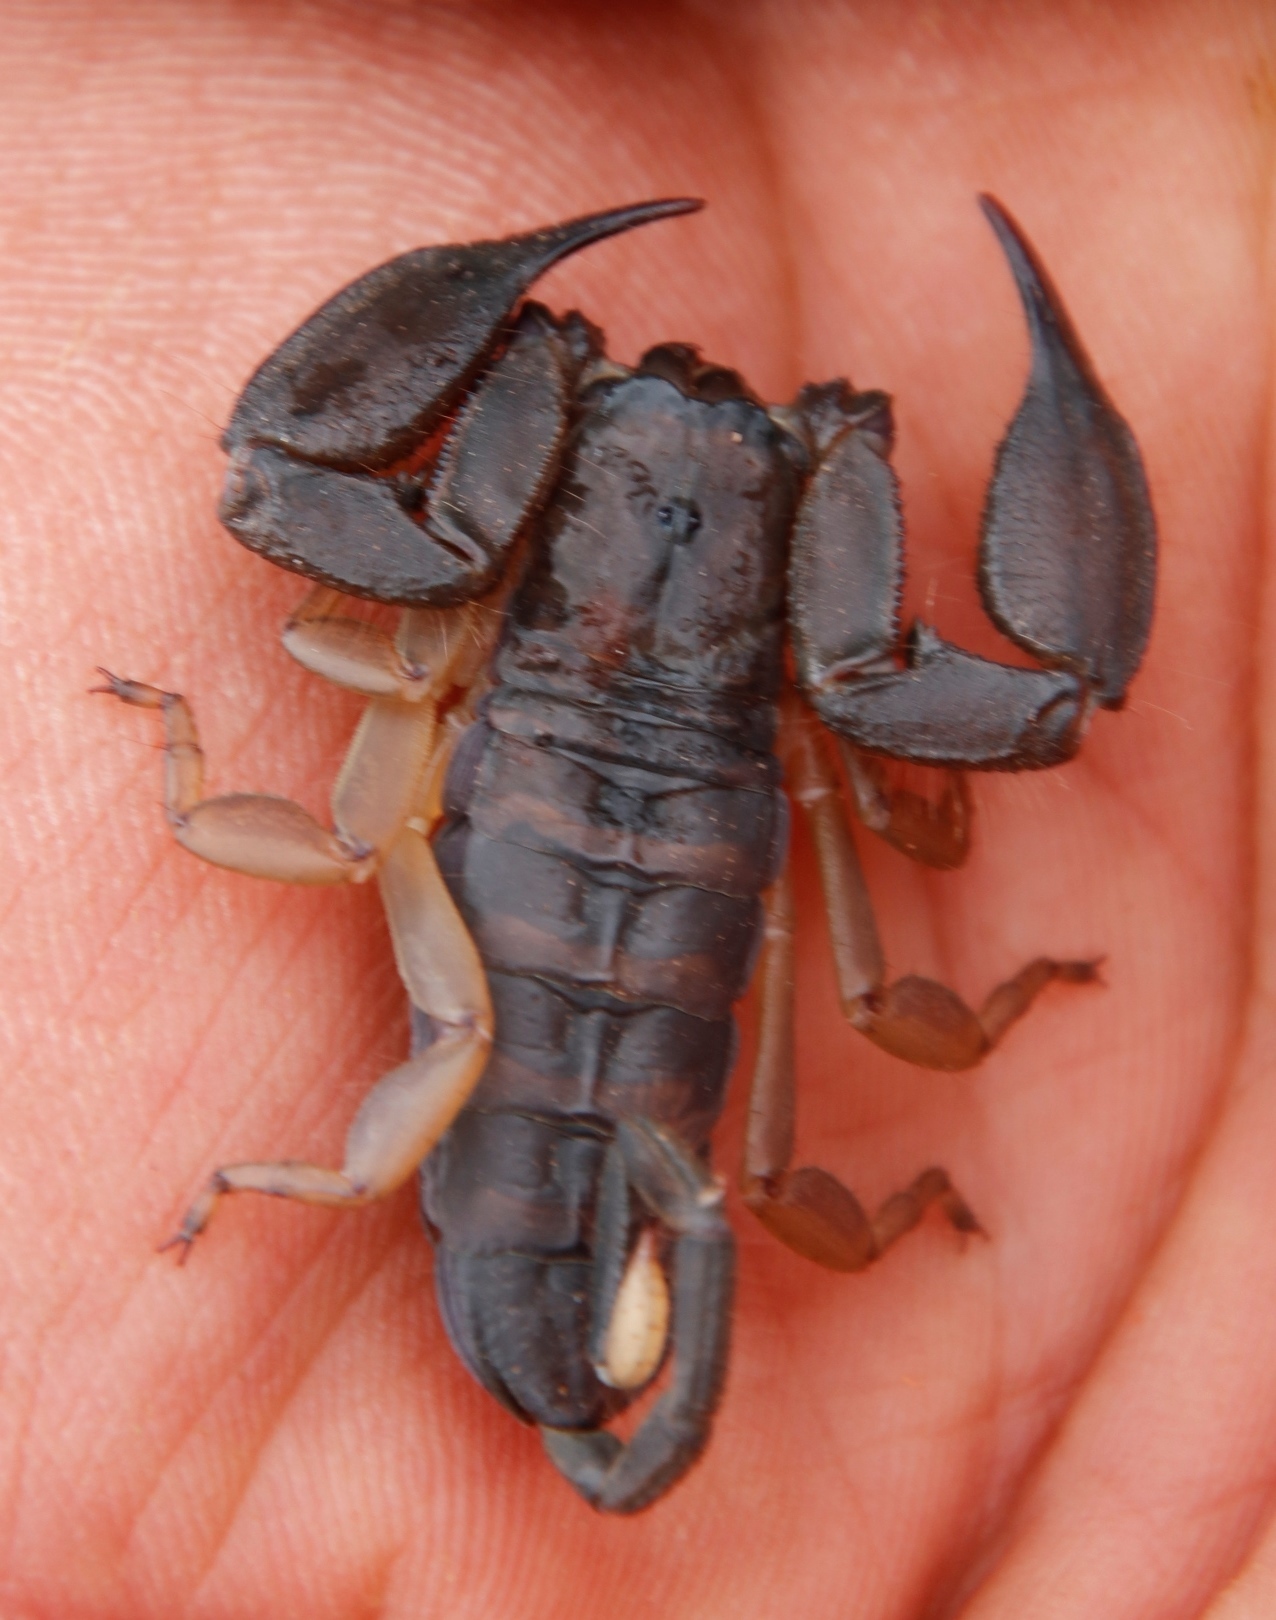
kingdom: Animalia
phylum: Arthropoda
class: Arachnida
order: Scorpiones
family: Hormuridae
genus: Hadogenes
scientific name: Hadogenes minor
